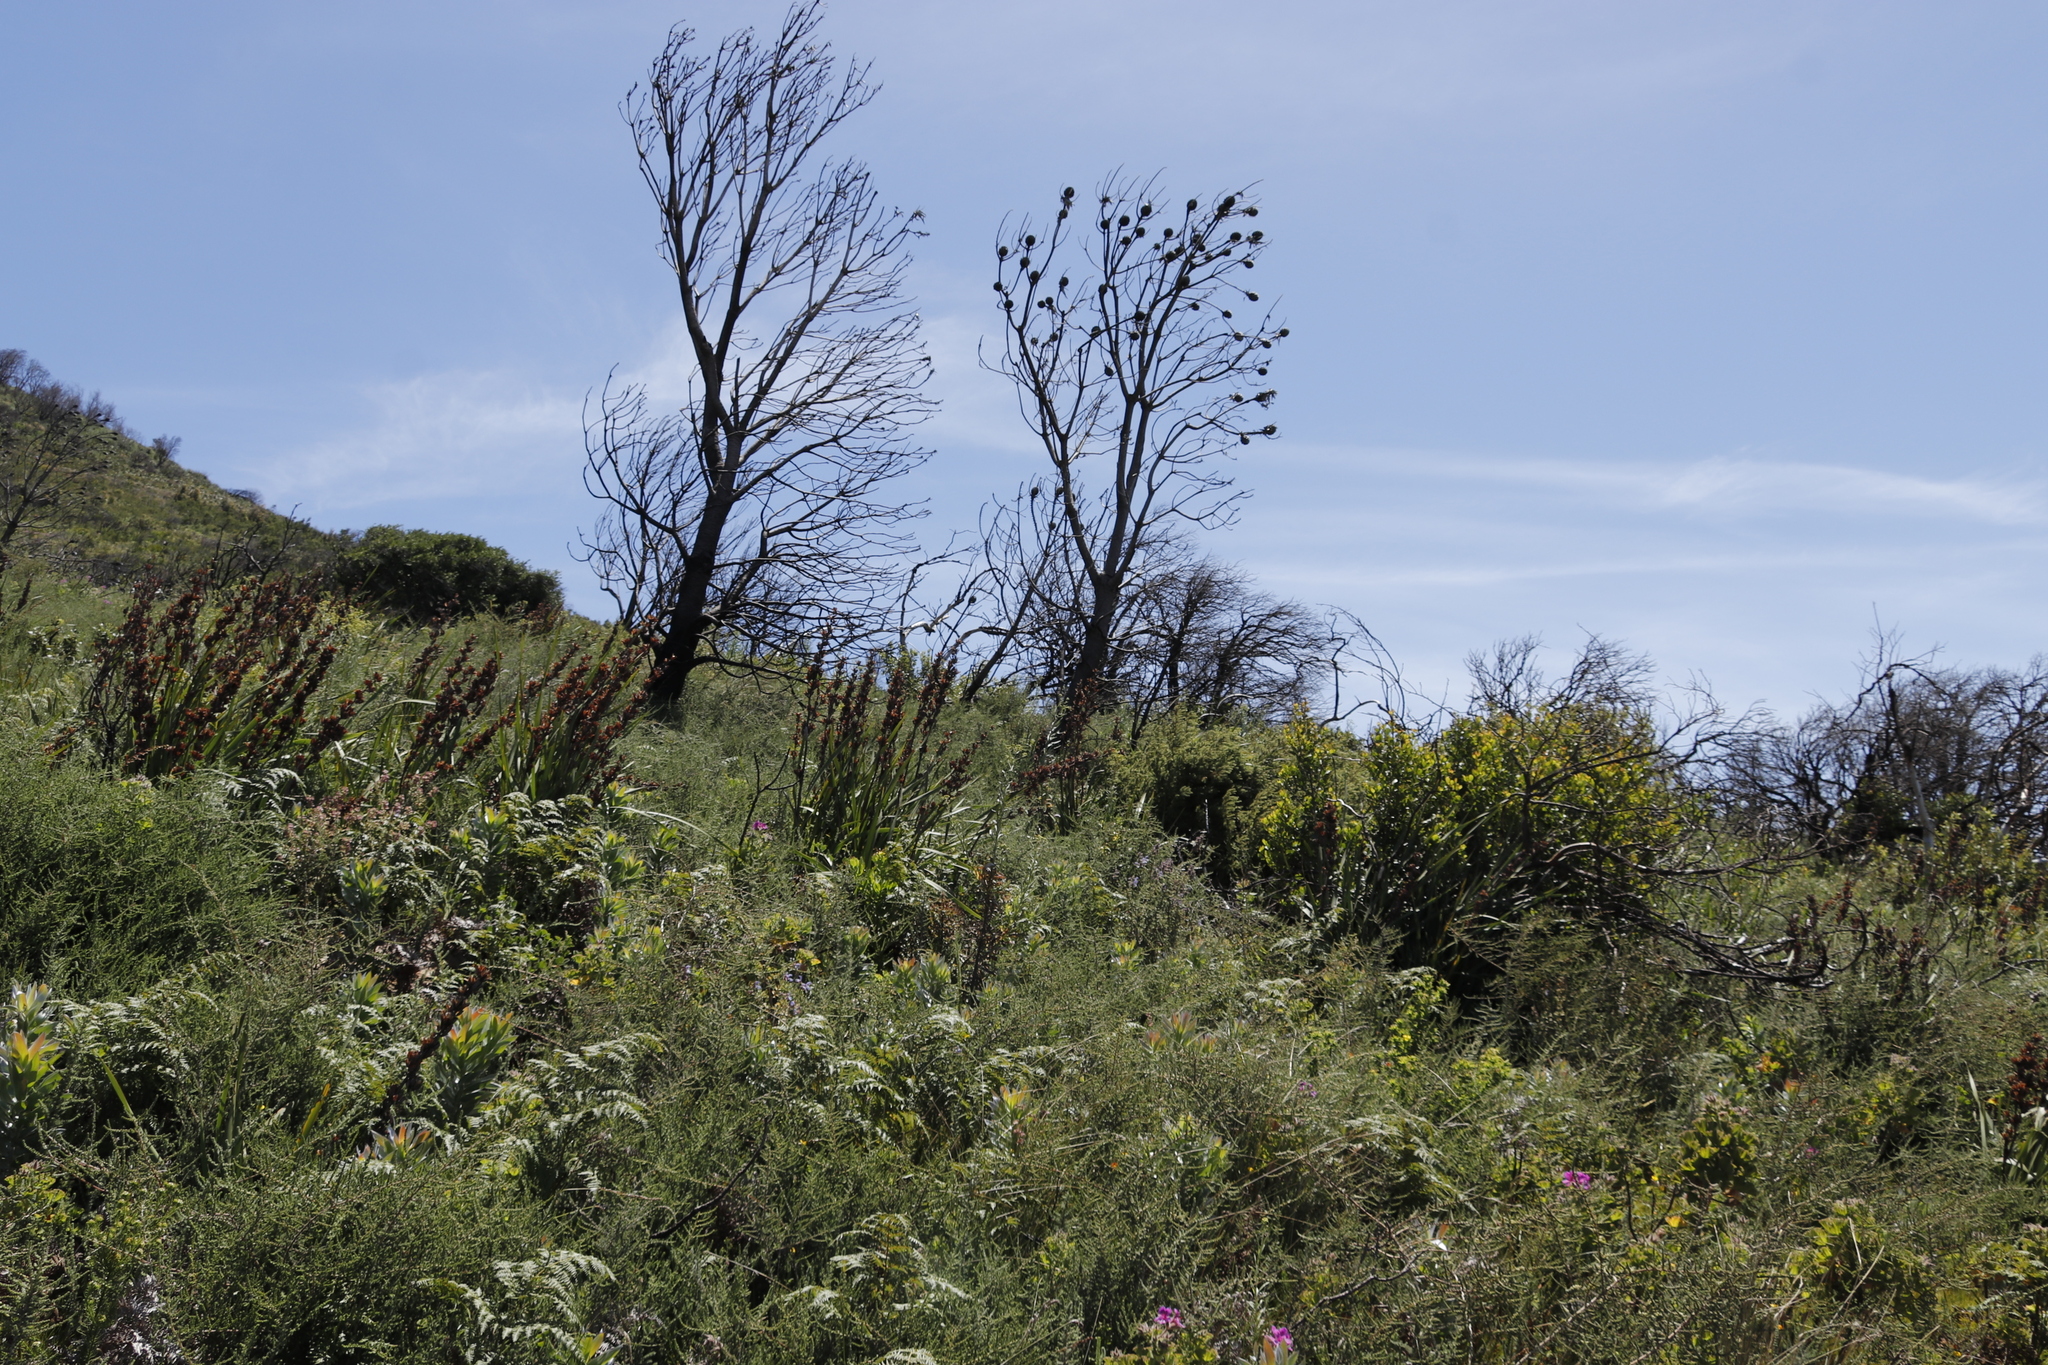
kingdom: Plantae
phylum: Tracheophyta
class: Magnoliopsida
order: Proteales
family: Proteaceae
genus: Leucadendron
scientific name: Leucadendron argenteum
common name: Cape silver tree
